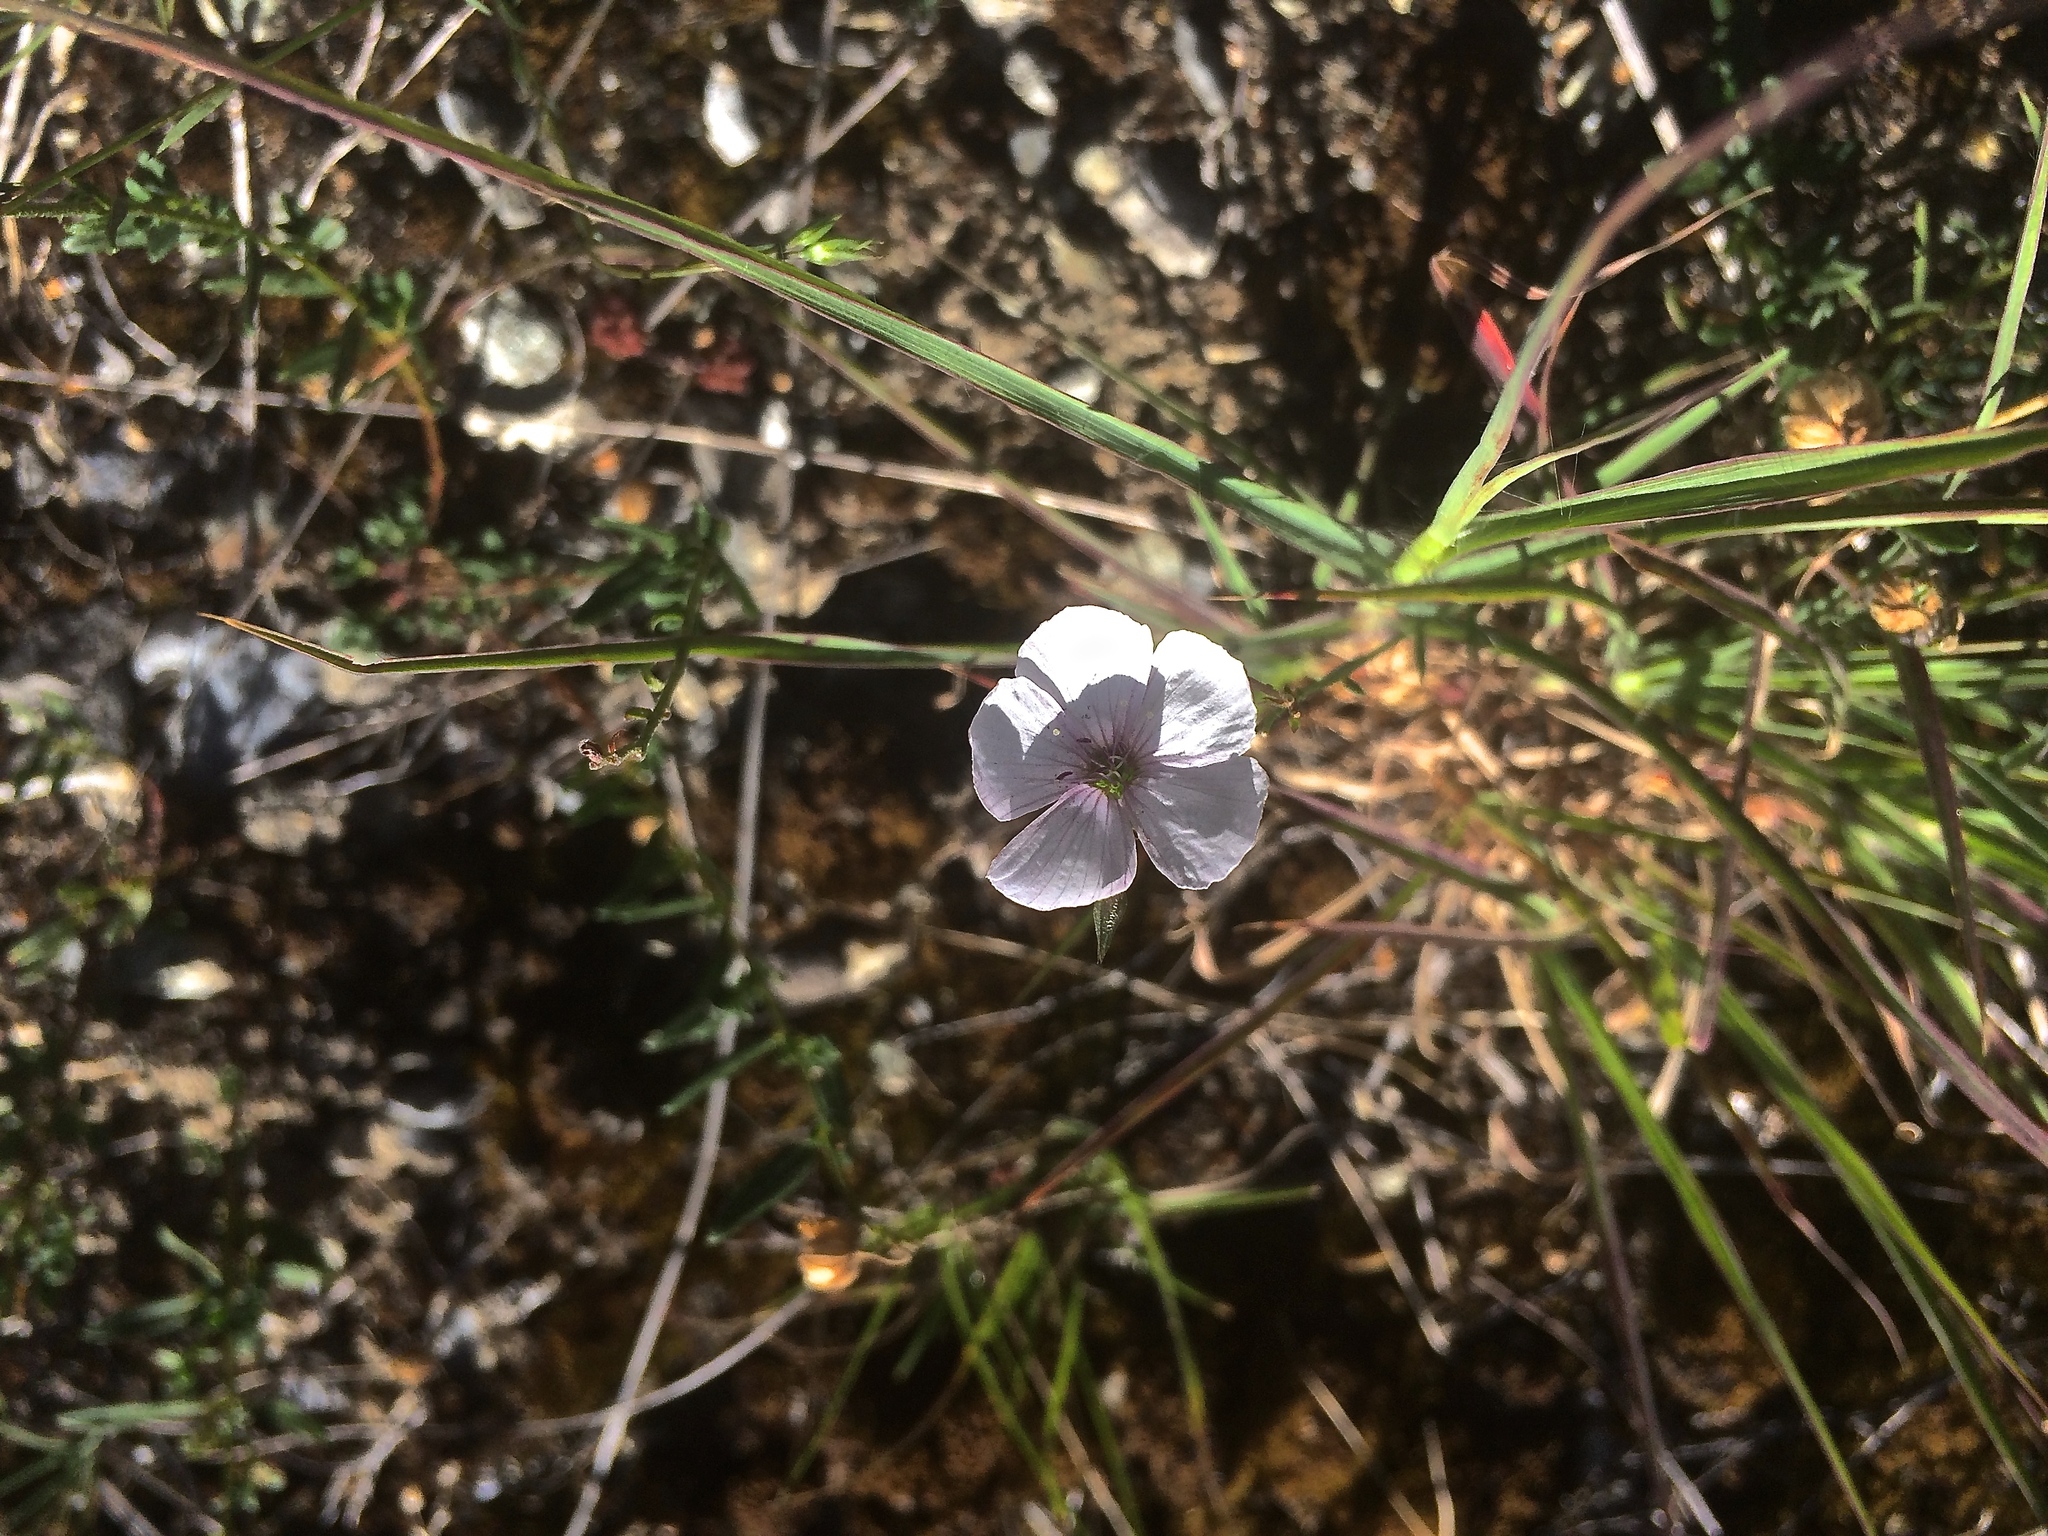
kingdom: Plantae
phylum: Tracheophyta
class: Magnoliopsida
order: Malpighiales
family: Linaceae
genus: Linum
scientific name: Linum tenuifolium
